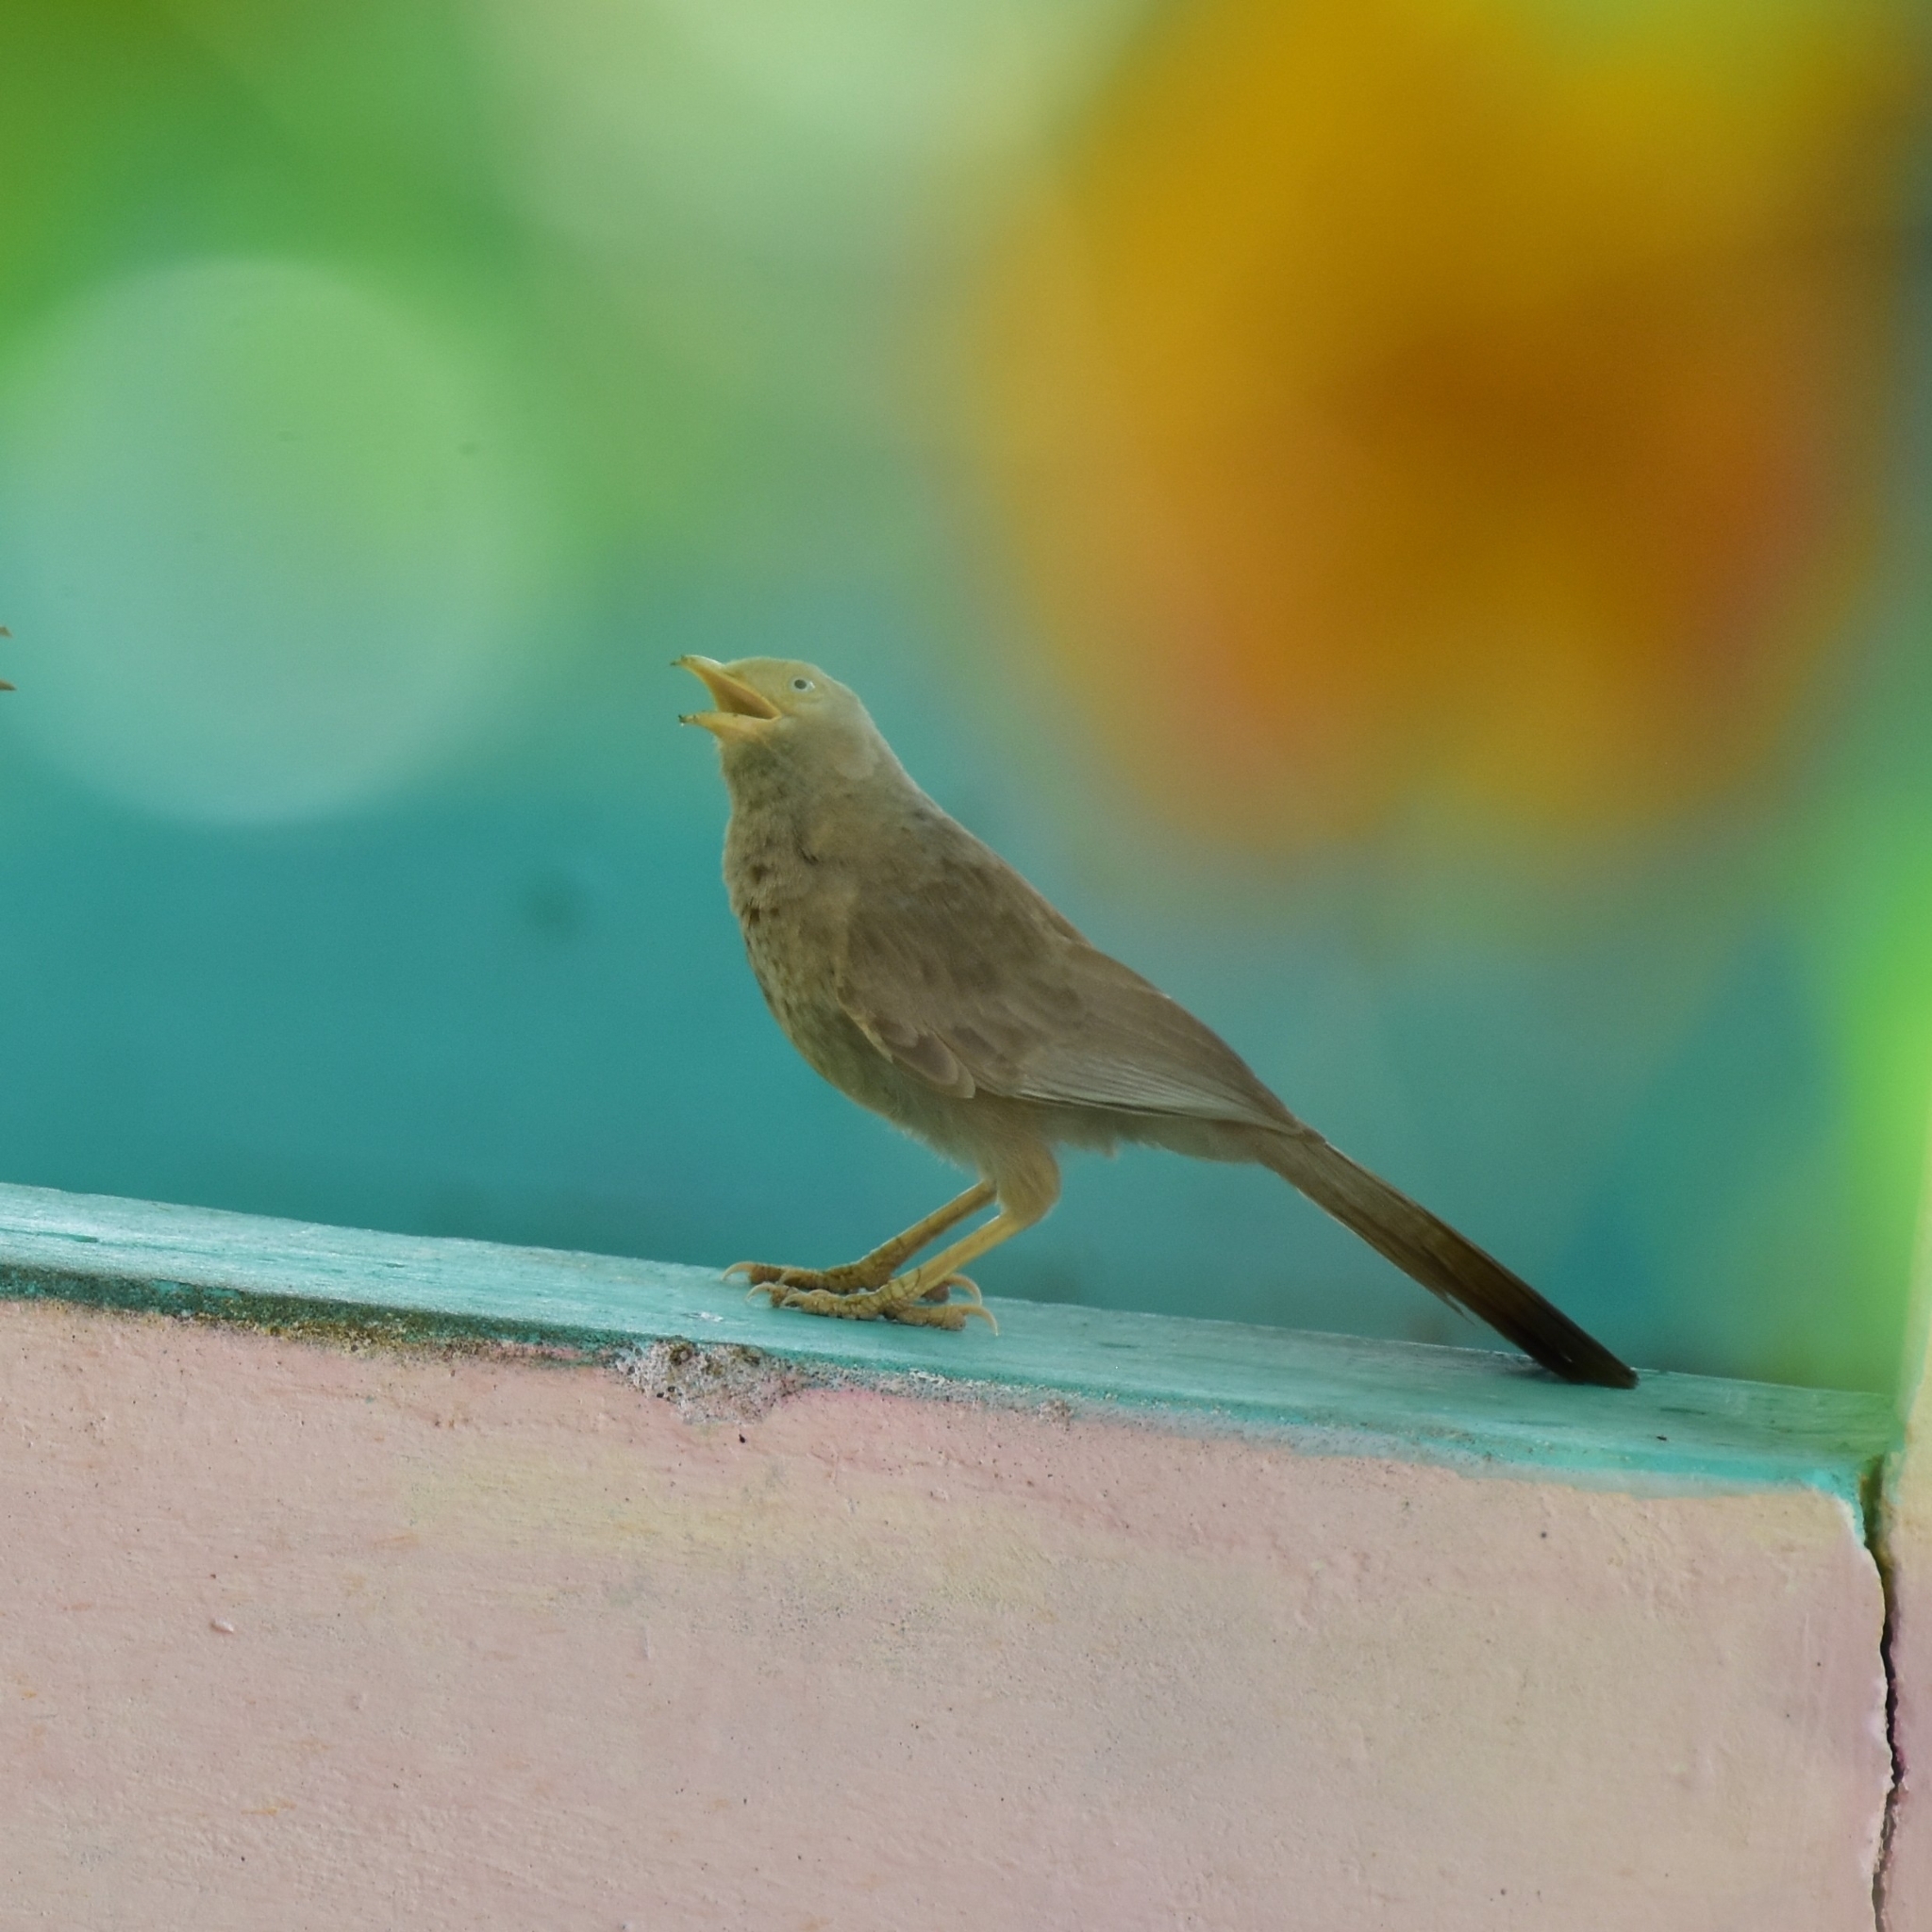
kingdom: Animalia
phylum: Chordata
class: Aves
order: Passeriformes
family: Leiothrichidae
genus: Turdoides
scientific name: Turdoides affinis
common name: Yellow-billed babbler
